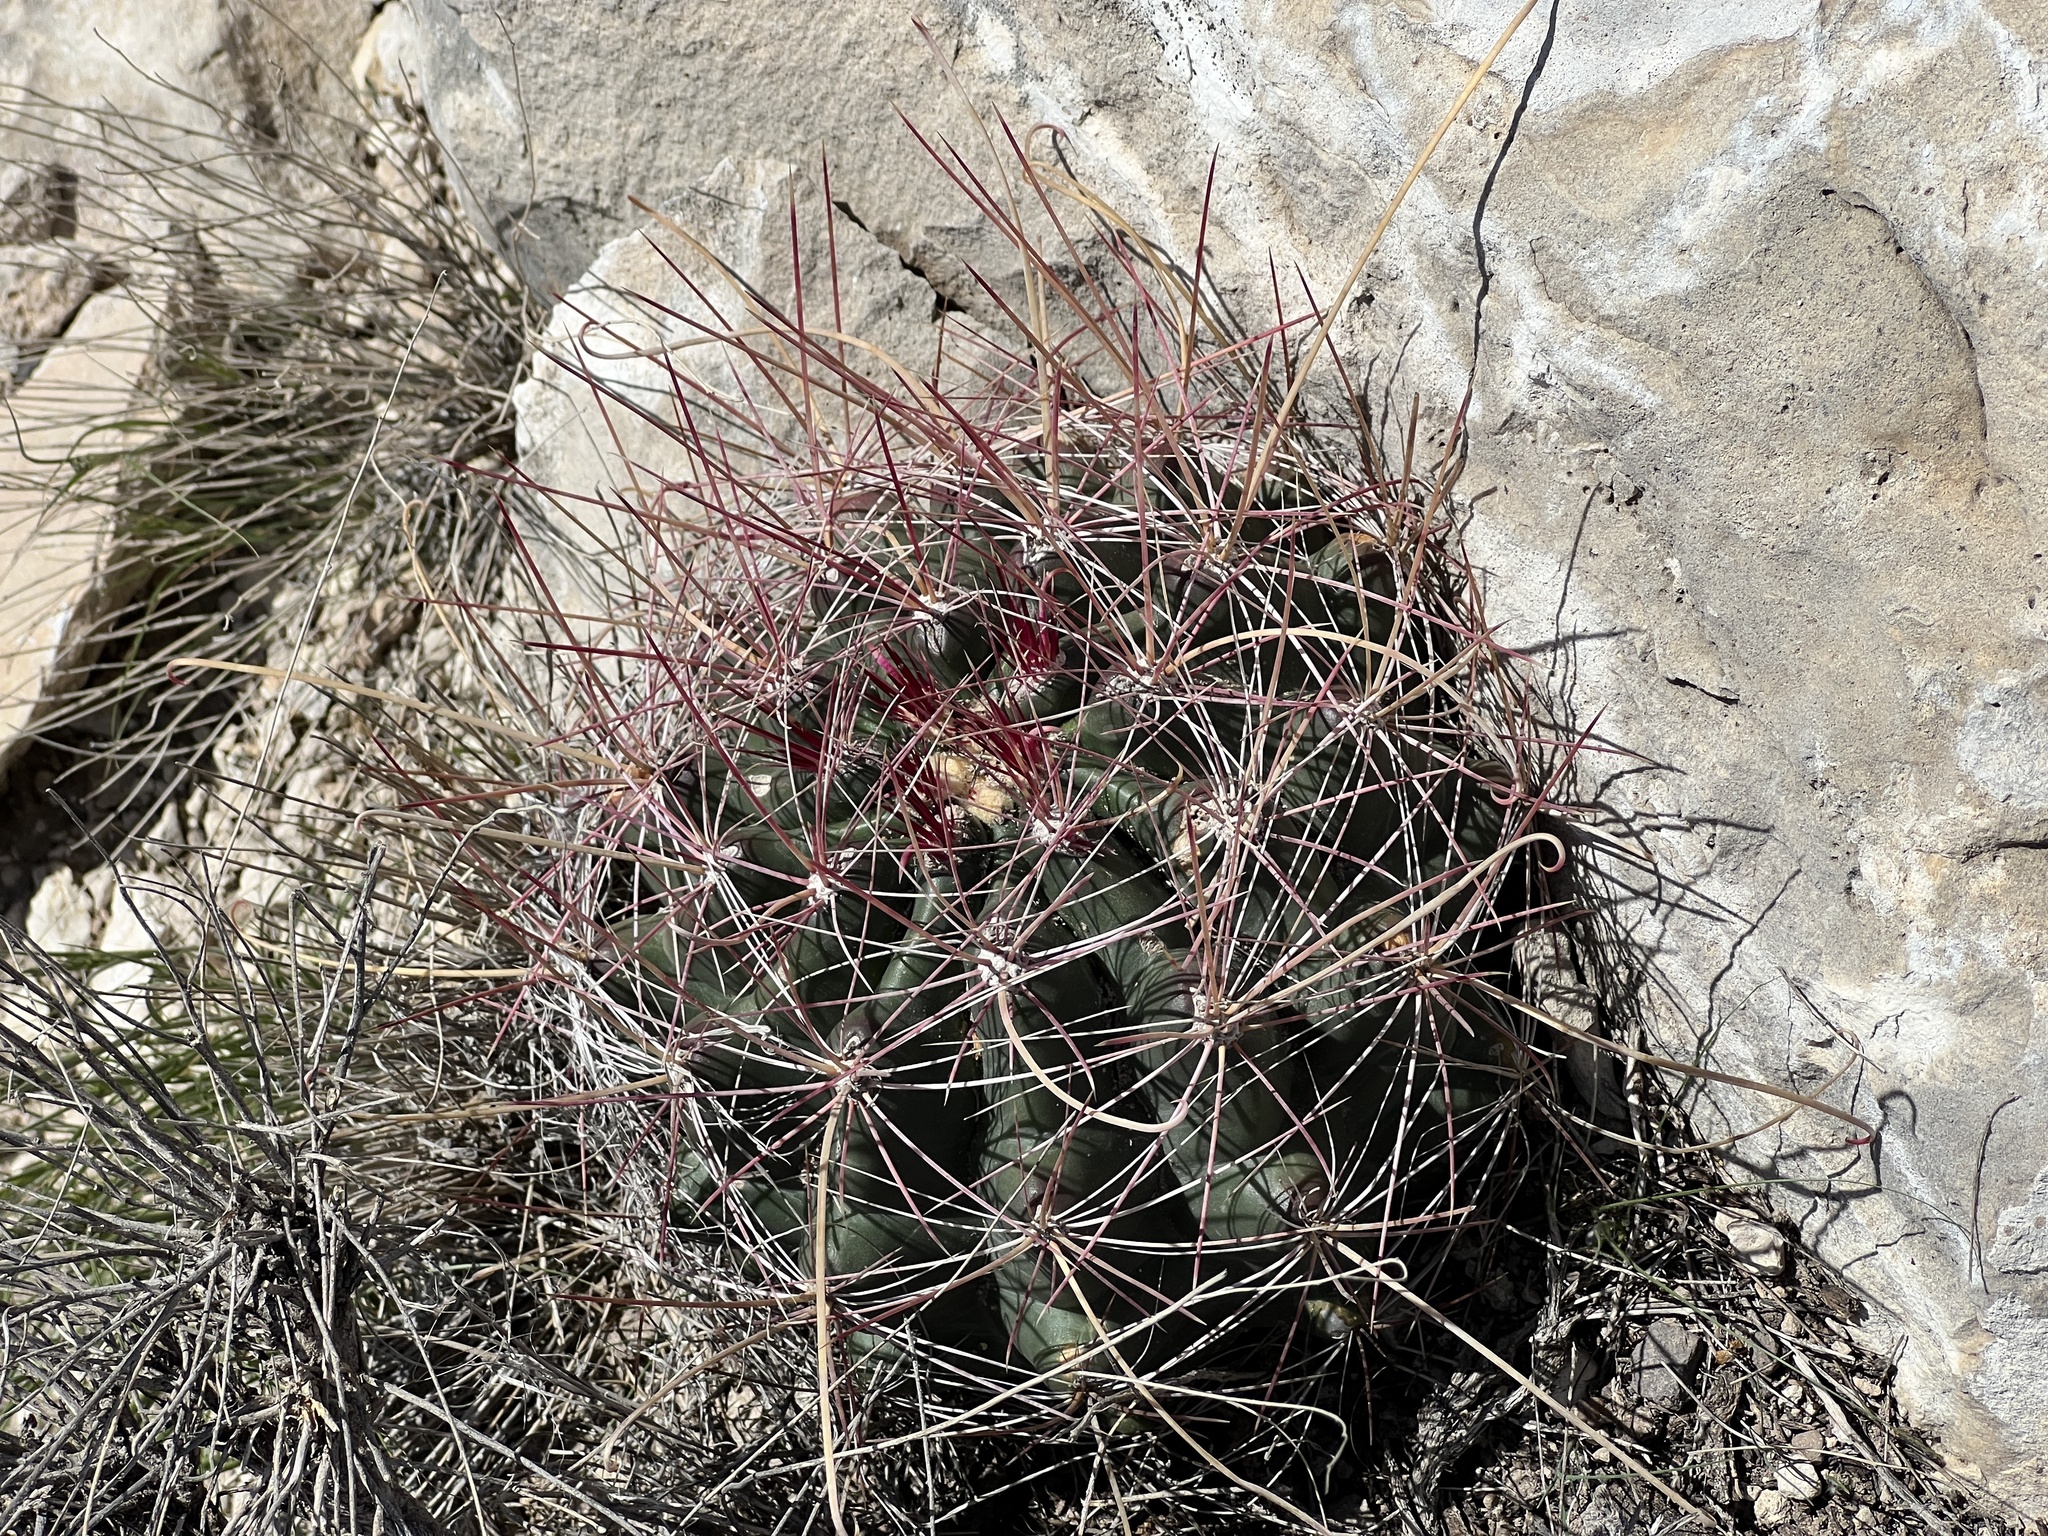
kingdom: Plantae
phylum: Tracheophyta
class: Magnoliopsida
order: Caryophyllales
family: Cactaceae
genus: Bisnaga
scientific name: Bisnaga hamatacantha
